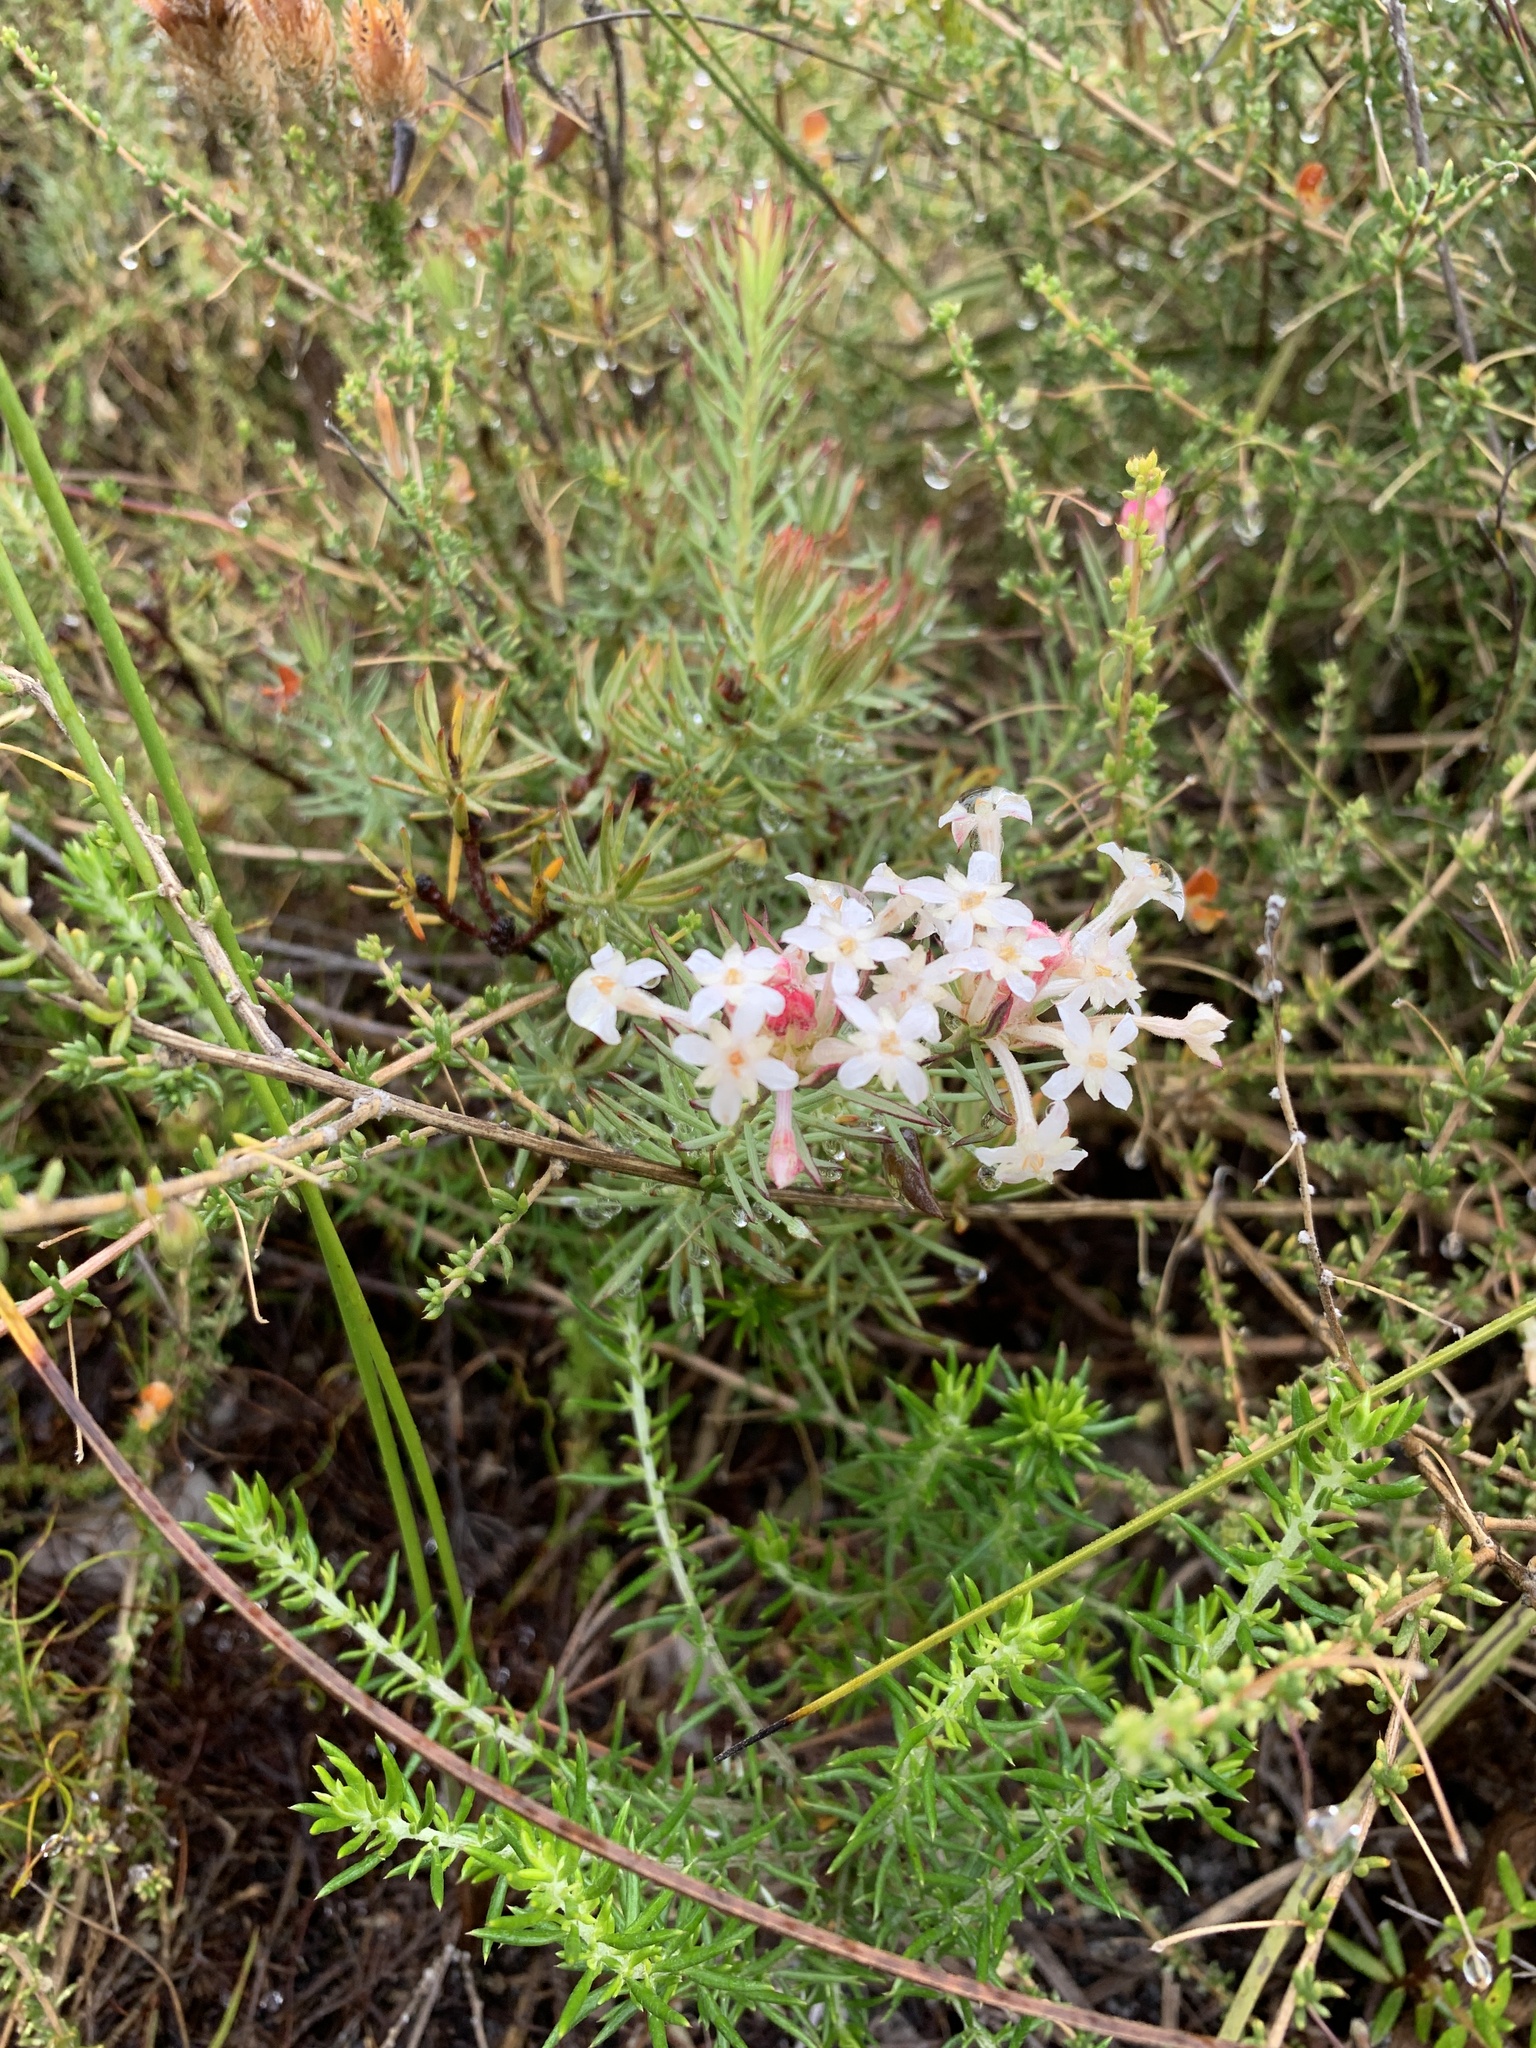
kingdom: Plantae
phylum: Tracheophyta
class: Magnoliopsida
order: Malvales
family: Thymelaeaceae
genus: Gnidia
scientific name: Gnidia pinifolia
